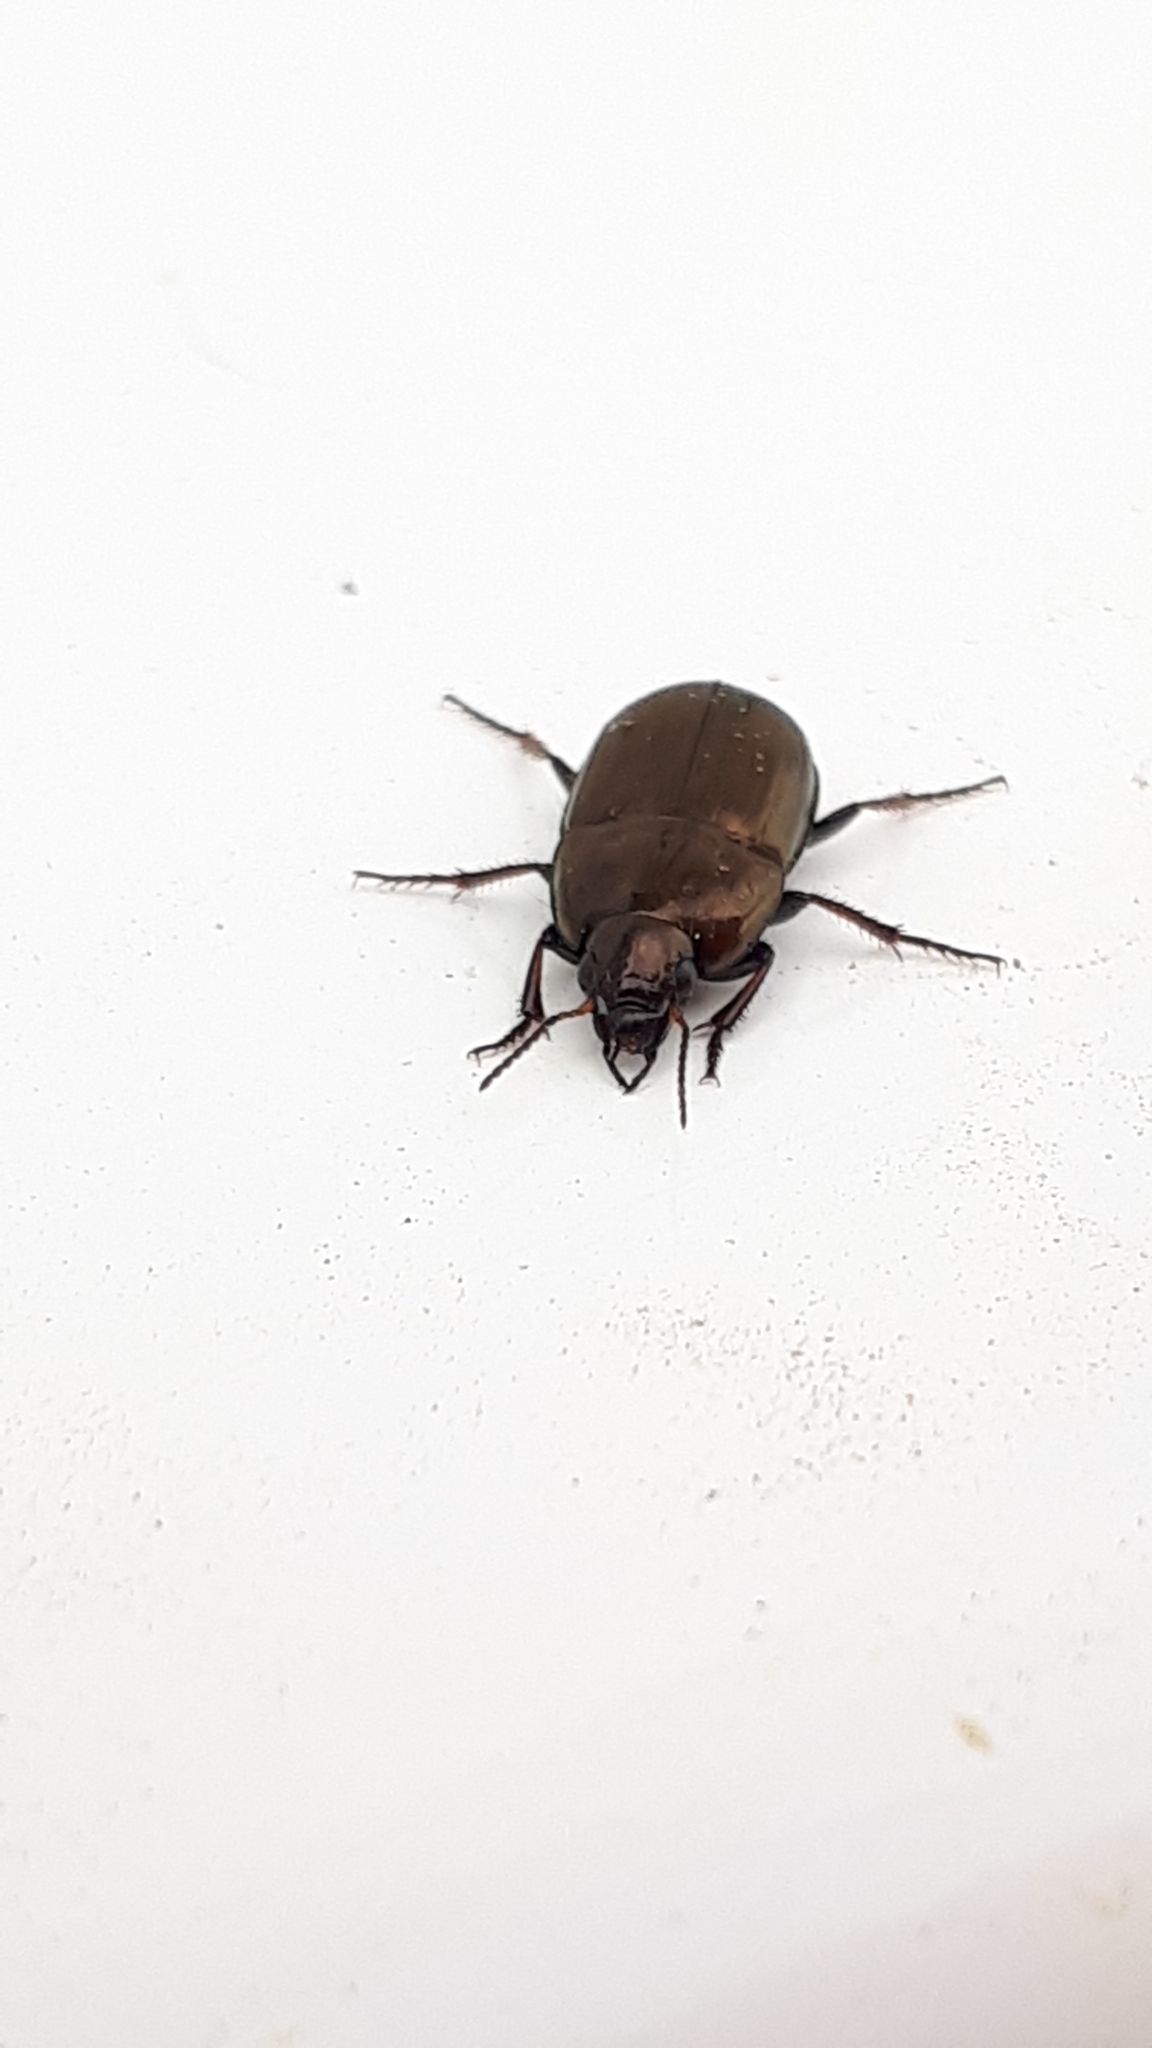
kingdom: Animalia
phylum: Arthropoda
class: Insecta
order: Coleoptera
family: Carabidae
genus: Amara
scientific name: Amara aenea
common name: Common sun beetle
